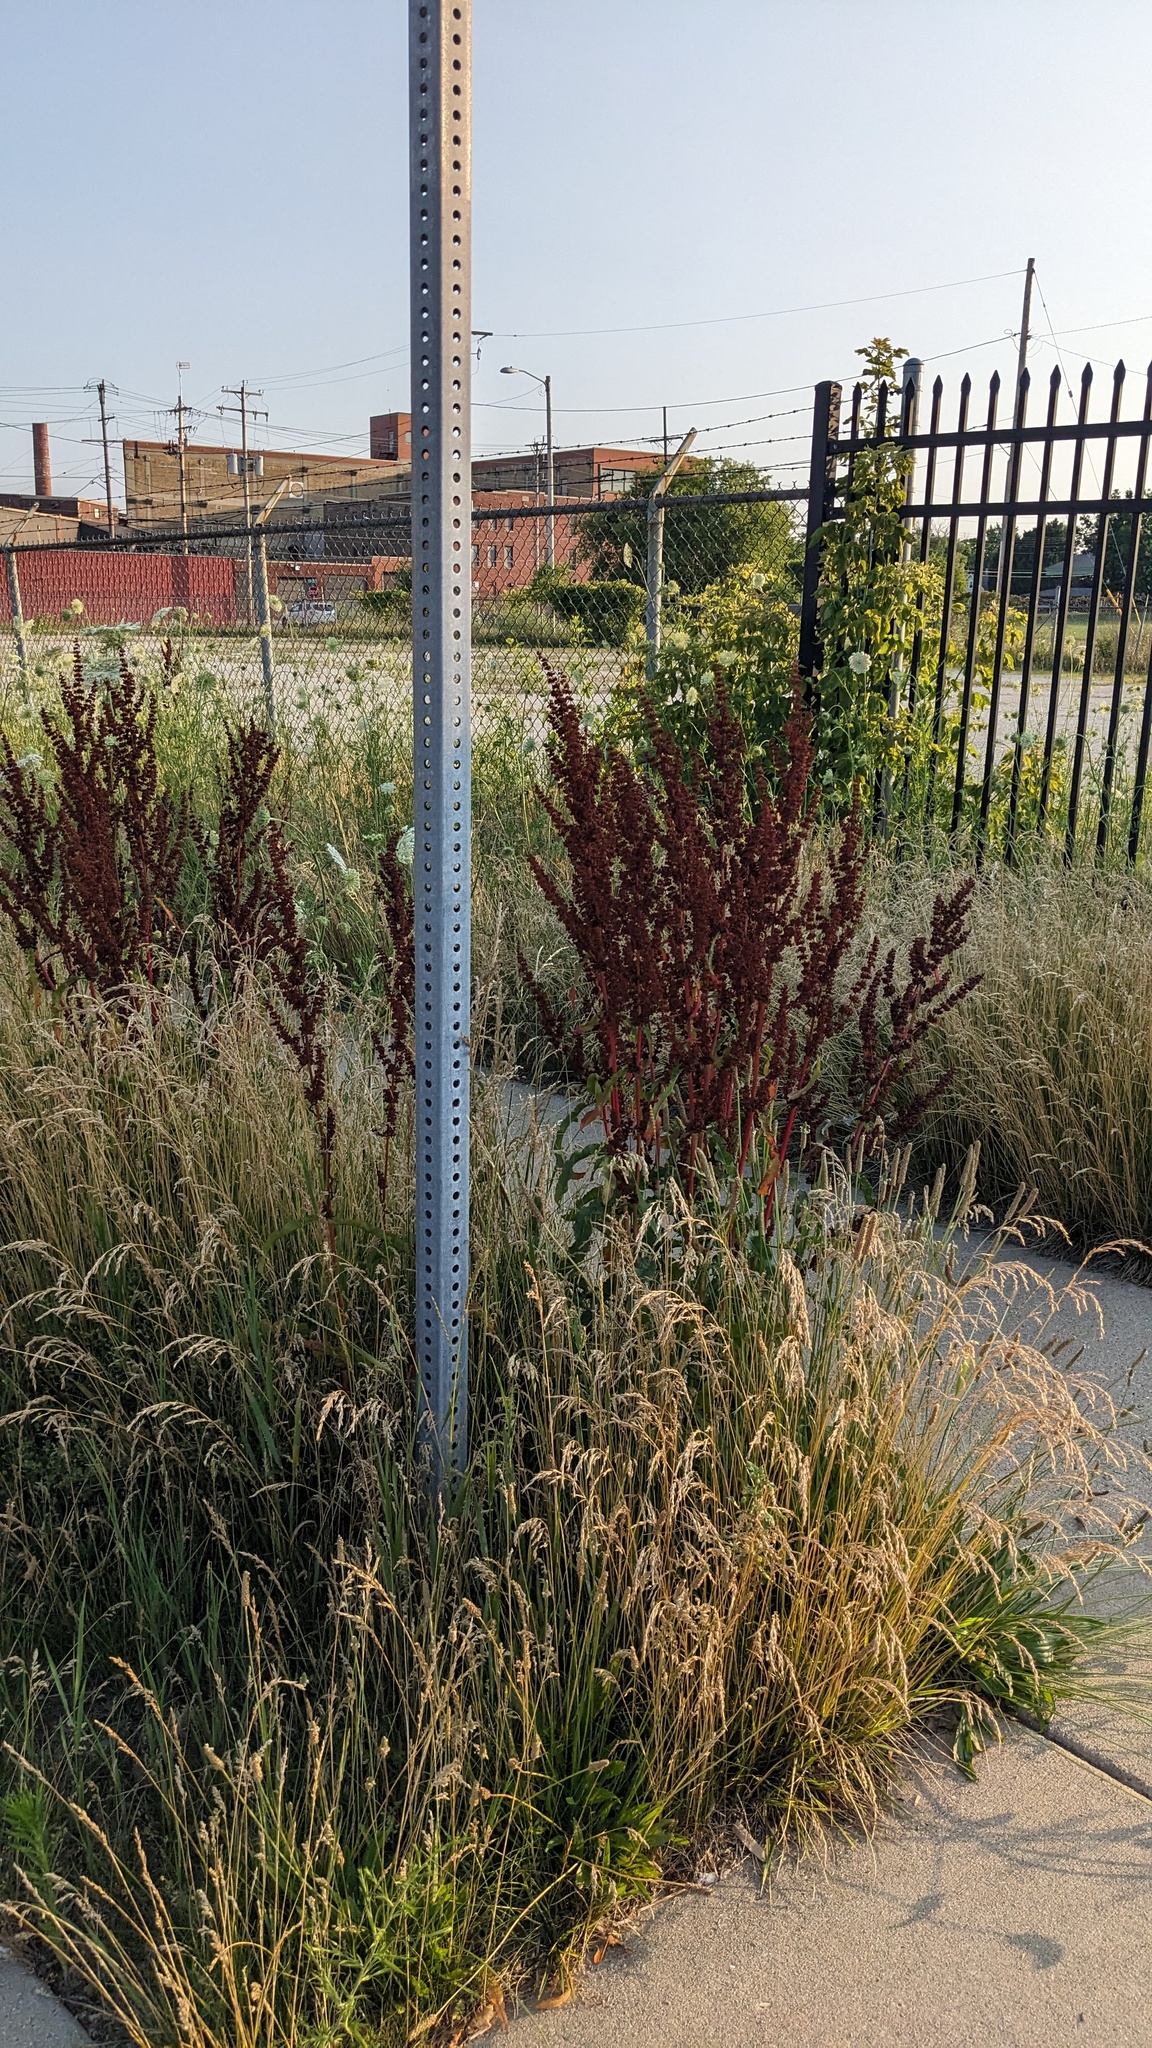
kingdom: Plantae
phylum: Tracheophyta
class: Magnoliopsida
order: Caryophyllales
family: Polygonaceae
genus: Rumex
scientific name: Rumex crispus
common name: Curled dock
